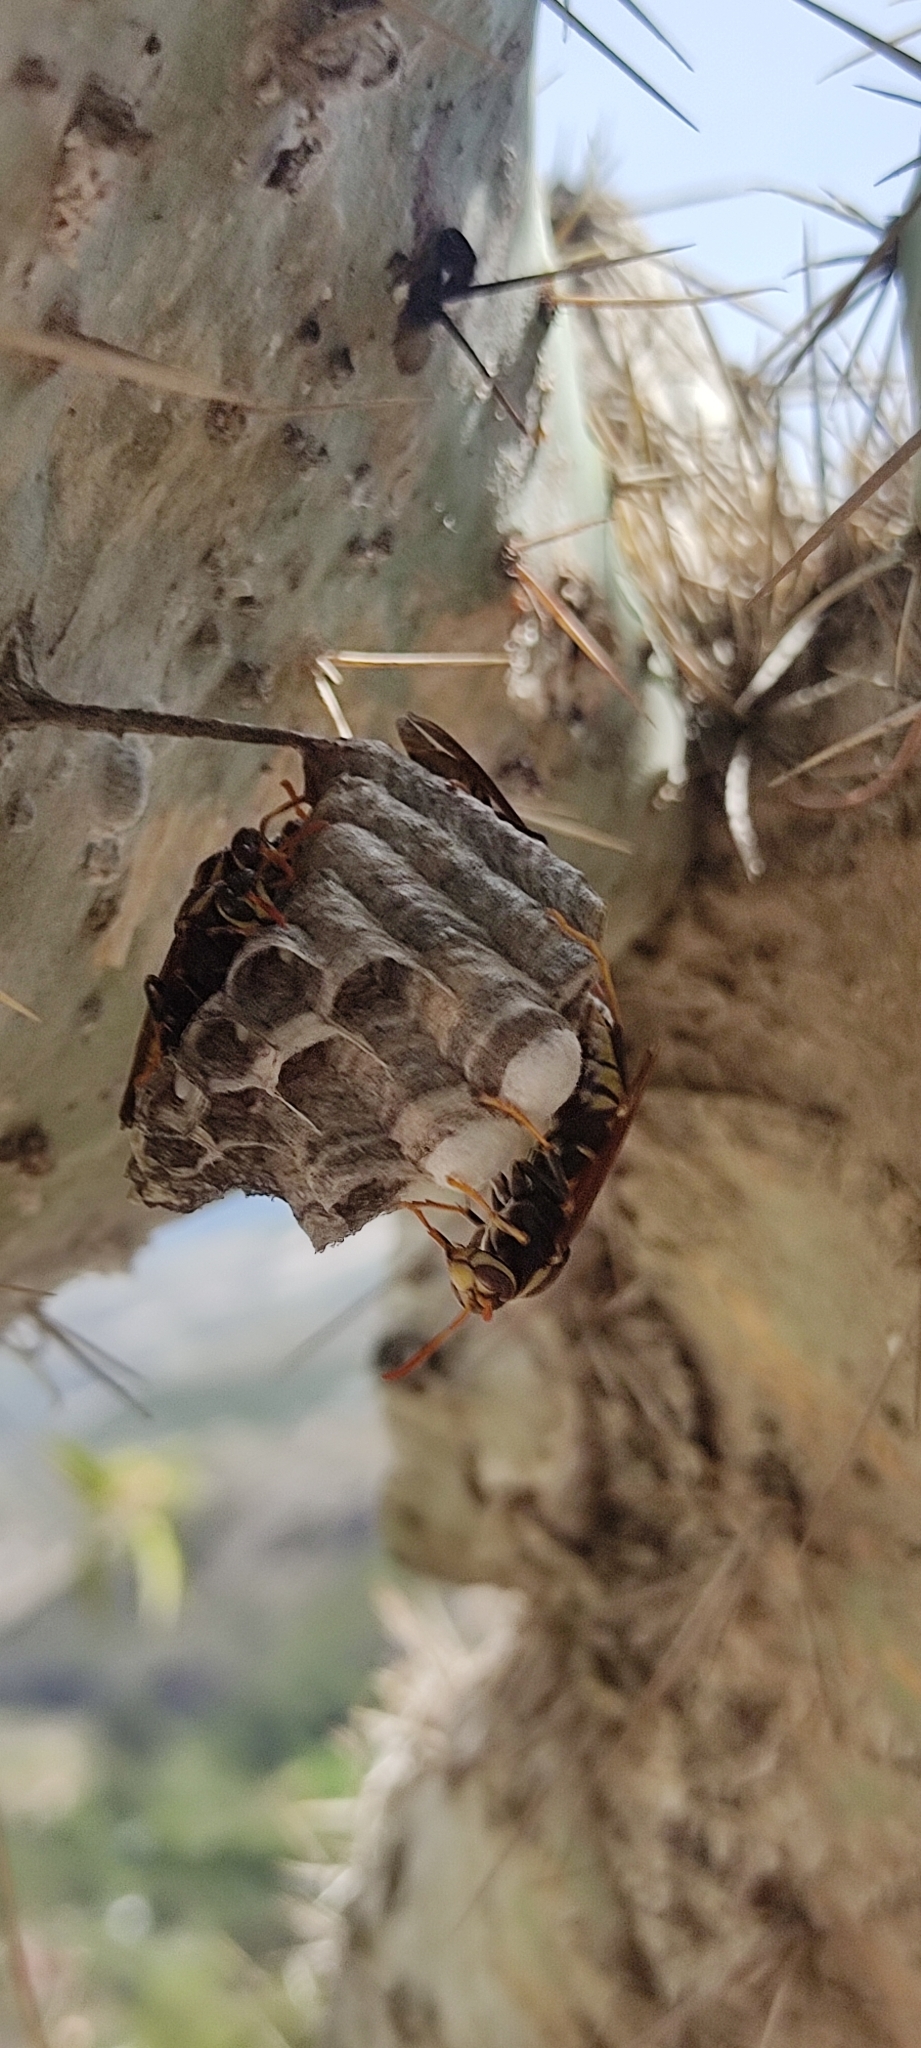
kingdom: Animalia
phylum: Arthropoda
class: Insecta
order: Hymenoptera
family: Eumenidae
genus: Polistes
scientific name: Polistes xanthogaster
